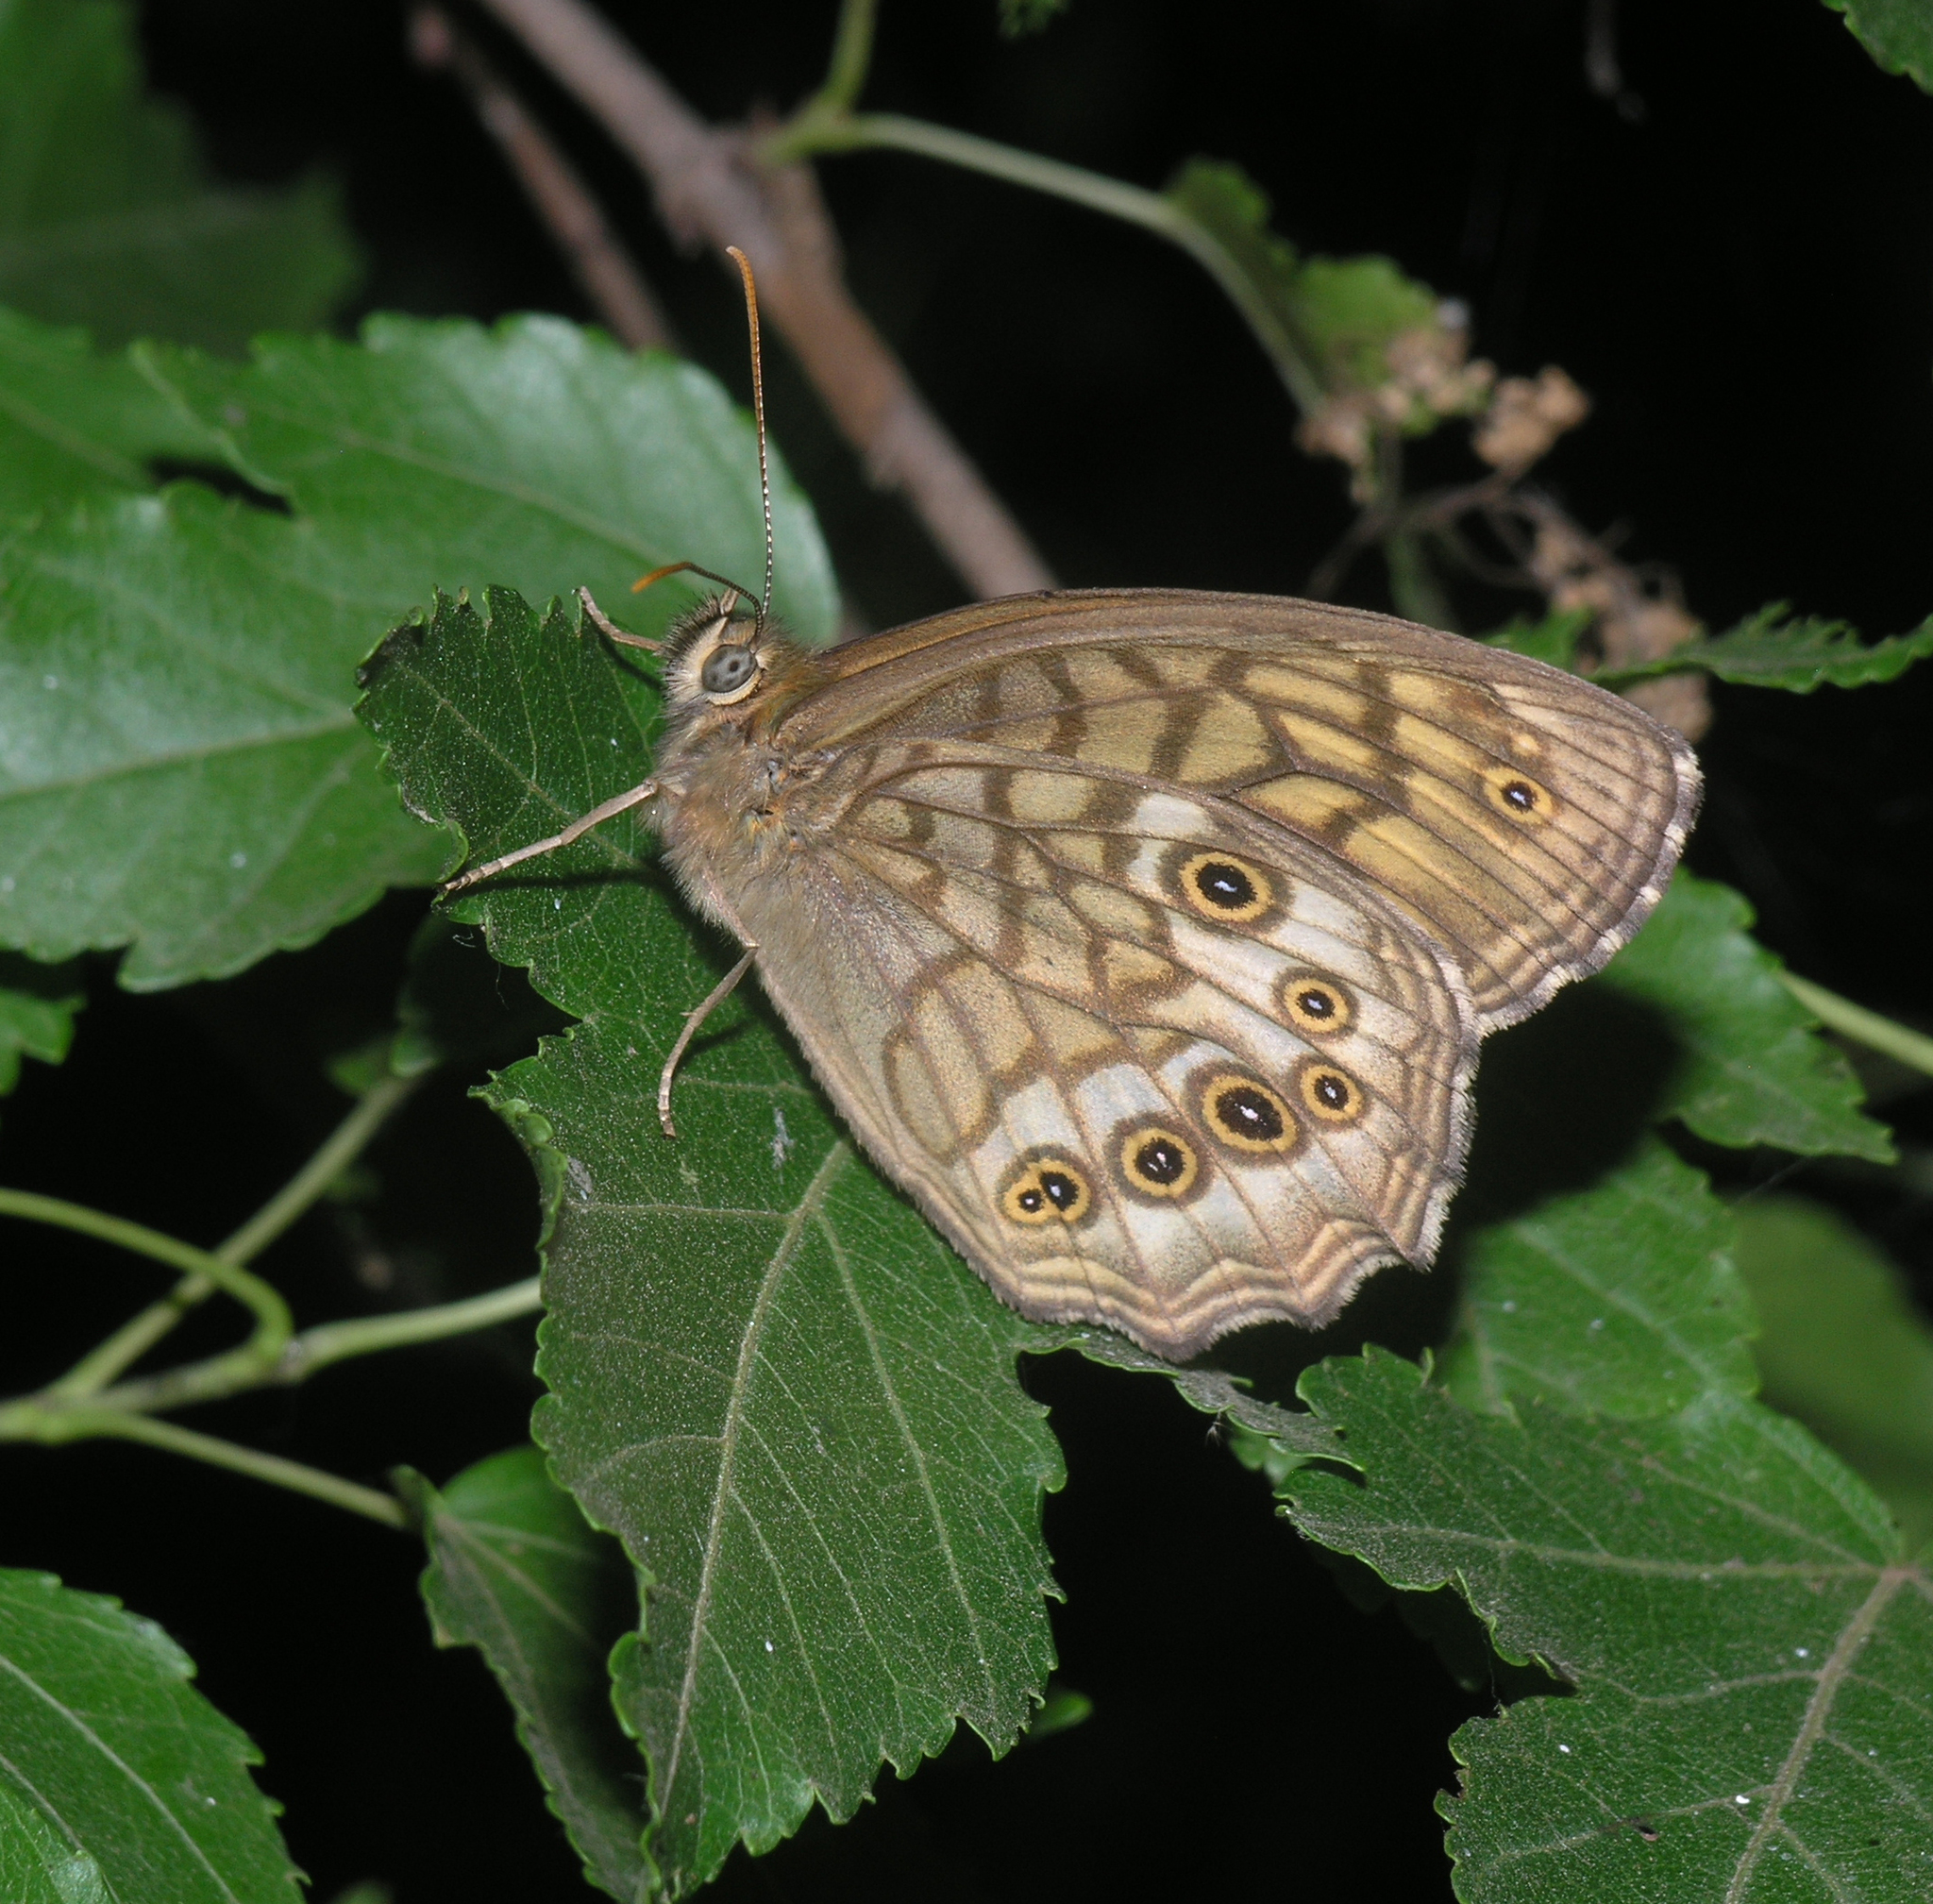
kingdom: Animalia
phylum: Arthropoda
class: Insecta
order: Lepidoptera
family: Nymphalidae
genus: Kirinia
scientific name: Kirinia
